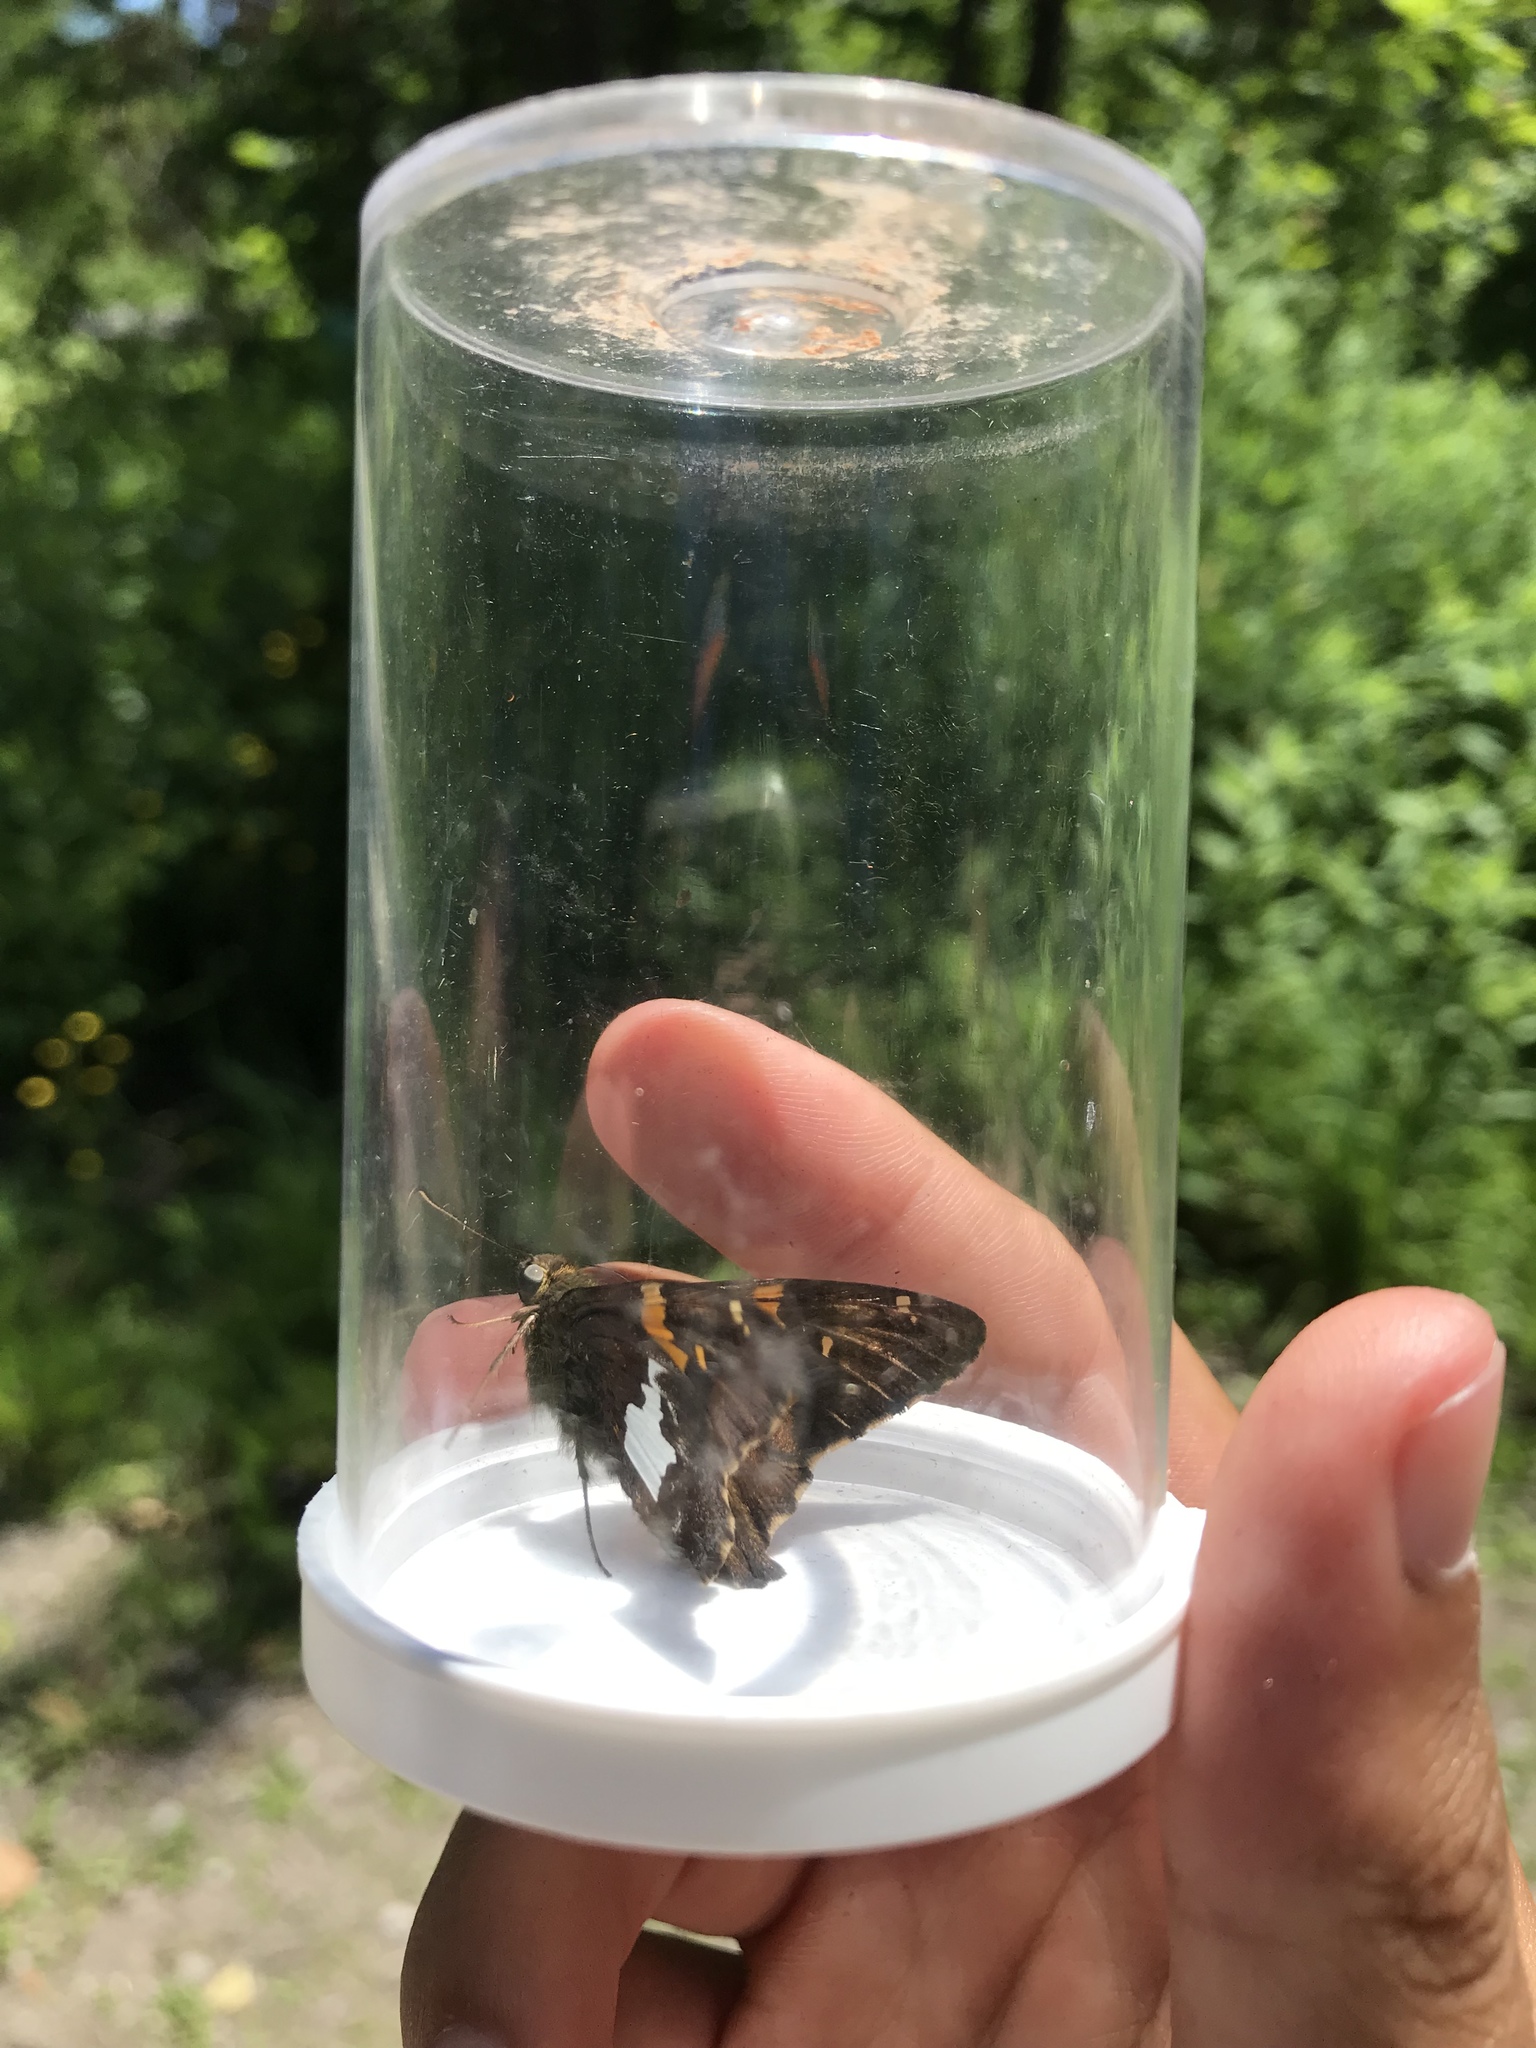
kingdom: Animalia
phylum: Arthropoda
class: Insecta
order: Lepidoptera
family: Hesperiidae
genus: Epargyreus
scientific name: Epargyreus clarus
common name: Silver-spotted skipper
